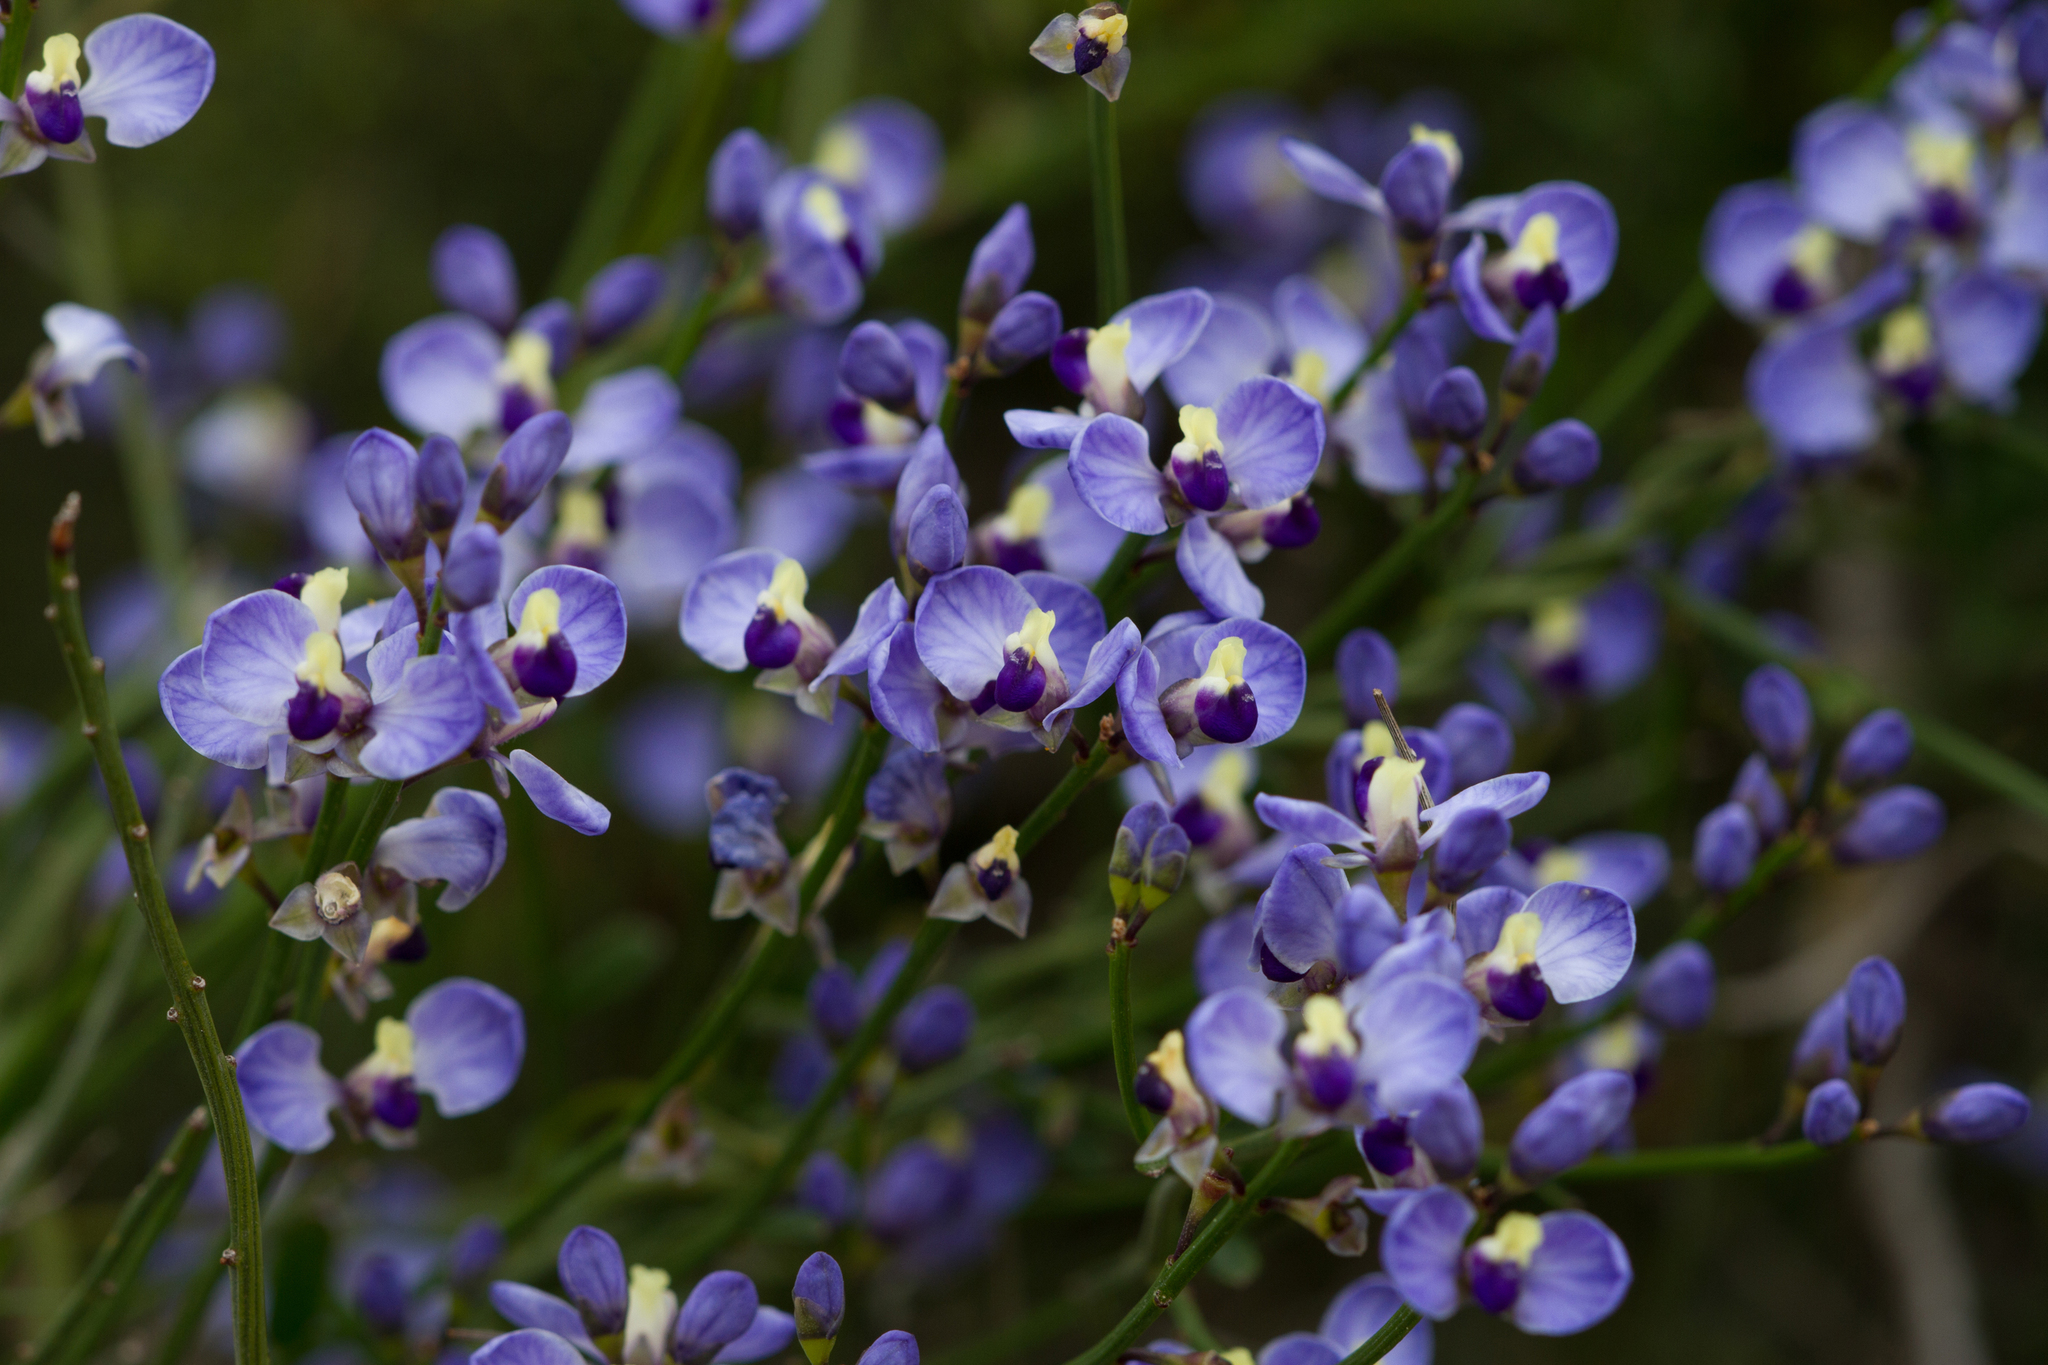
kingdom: Plantae
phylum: Tracheophyta
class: Magnoliopsida
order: Fabales
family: Polygalaceae
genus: Comesperma
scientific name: Comesperma volubile
